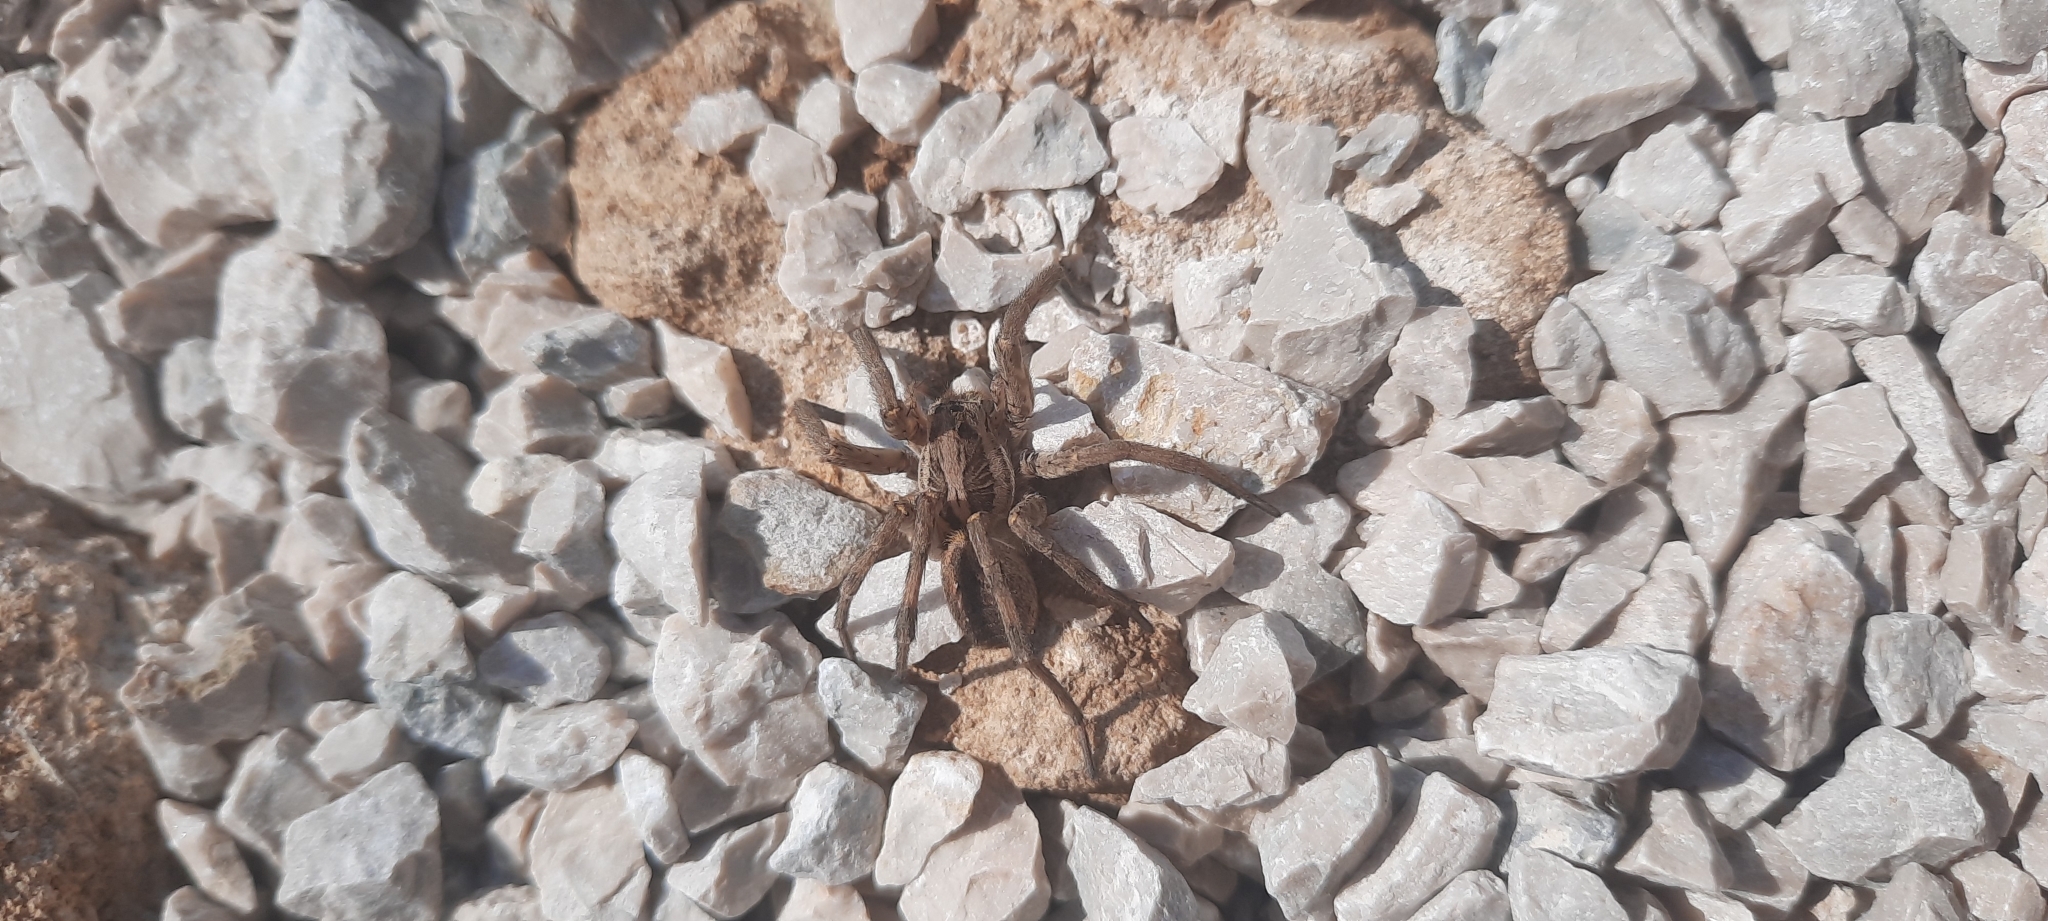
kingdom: Animalia
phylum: Arthropoda
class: Arachnida
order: Araneae
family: Lycosidae
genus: Hogna
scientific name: Hogna radiata
